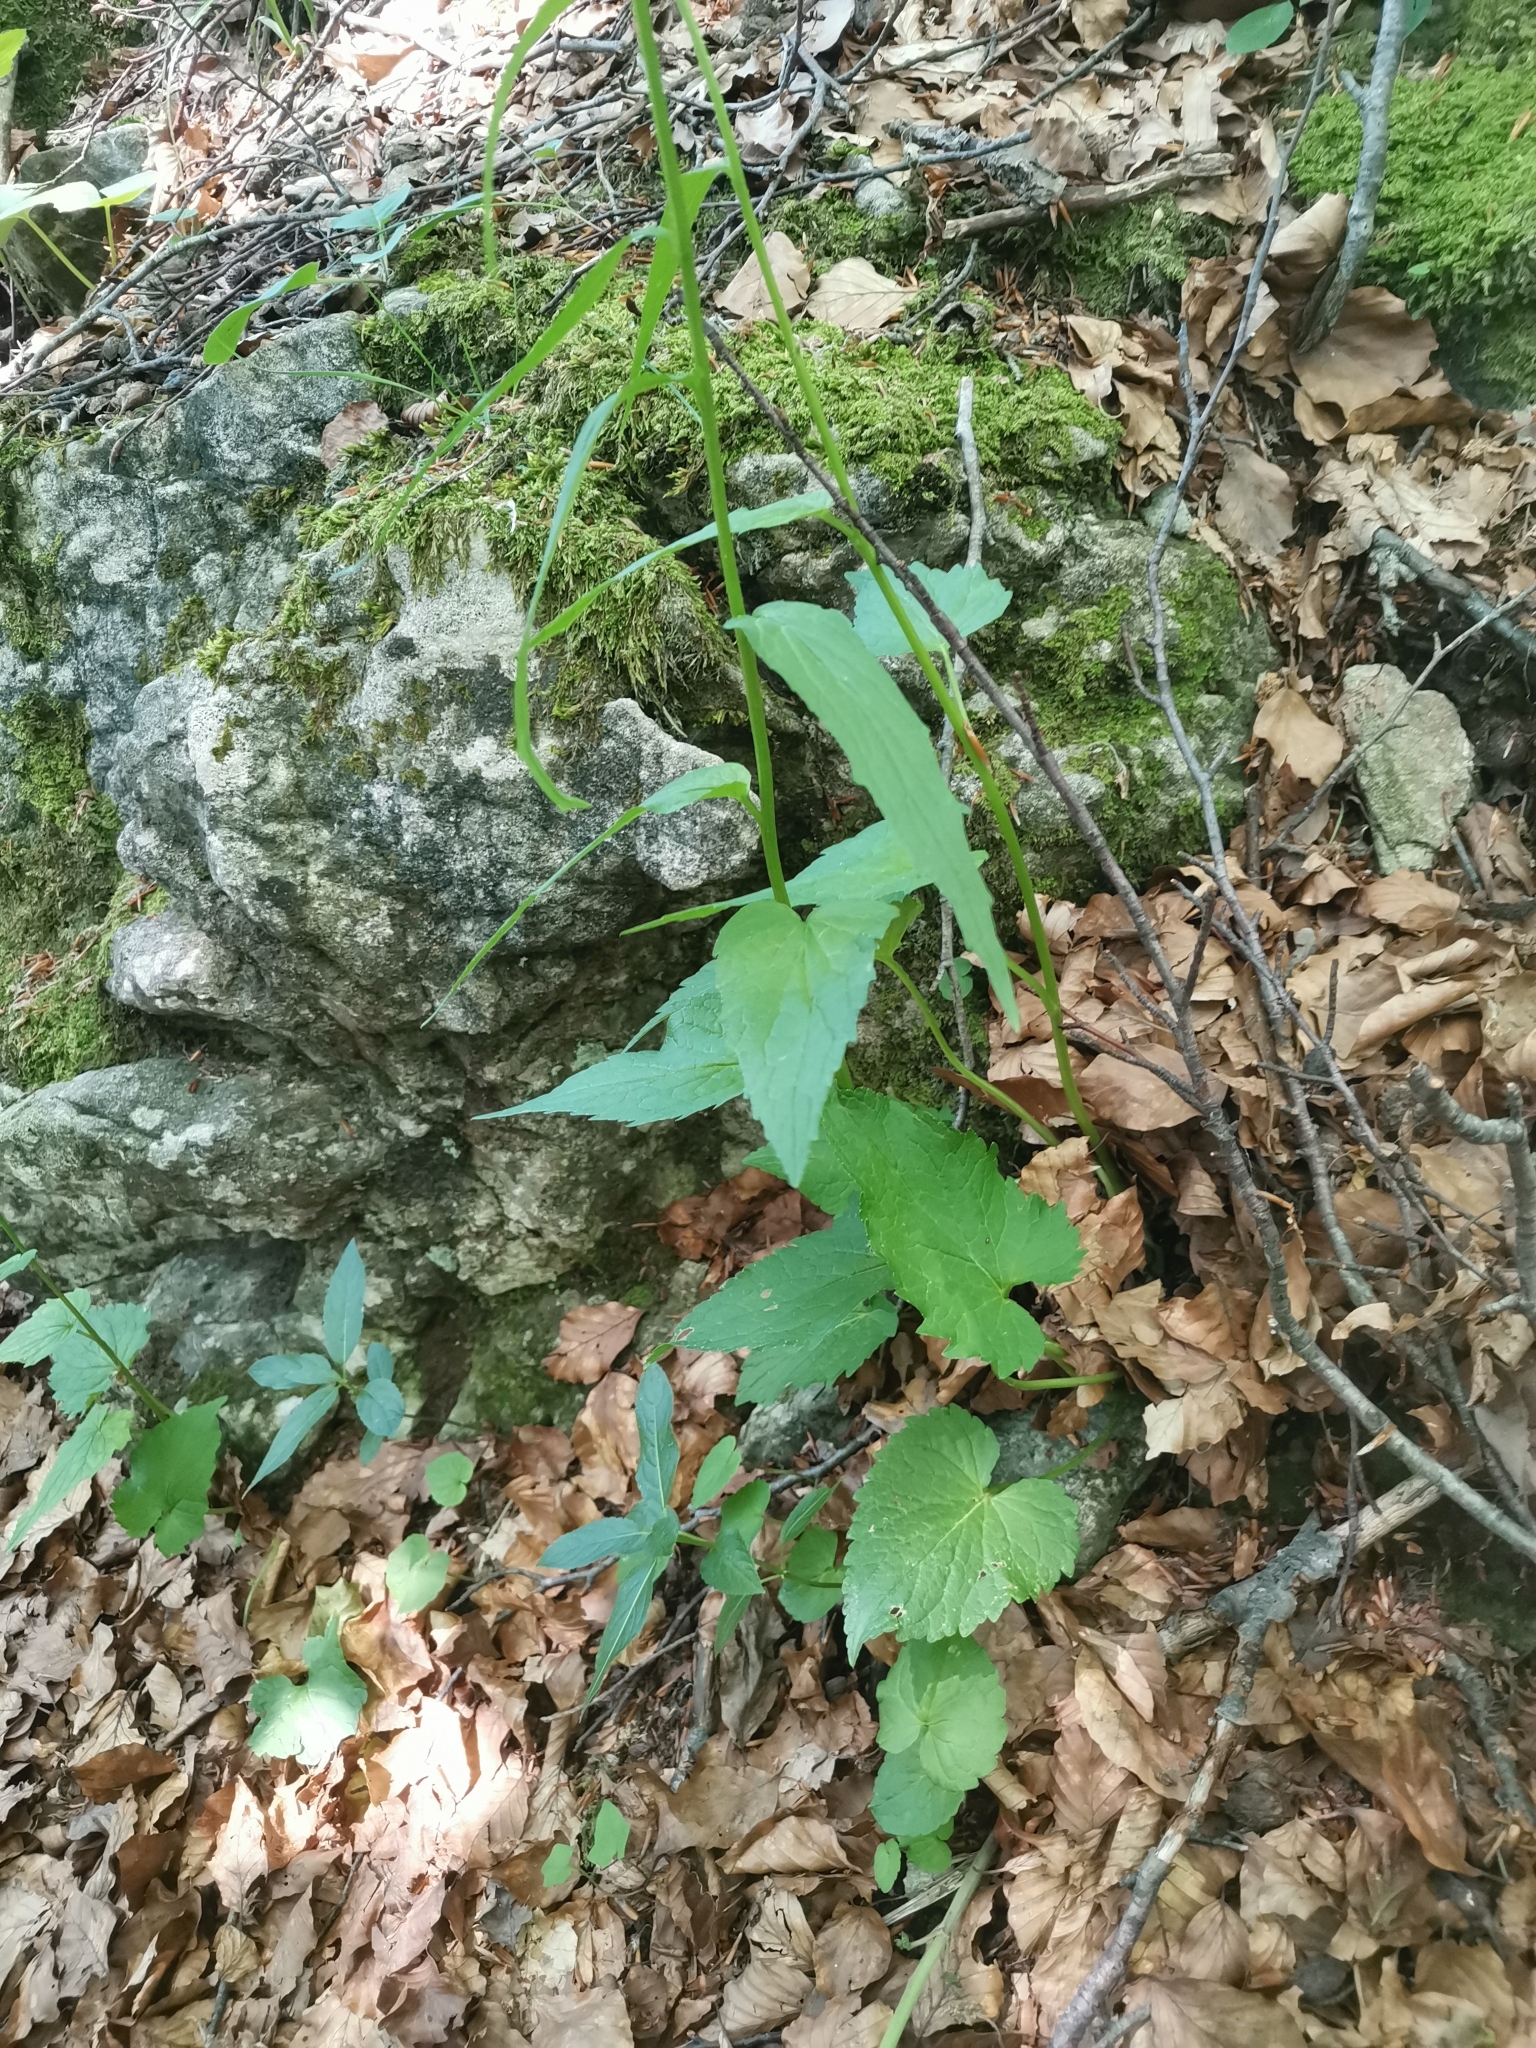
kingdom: Plantae
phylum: Tracheophyta
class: Magnoliopsida
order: Asterales
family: Campanulaceae
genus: Phyteuma
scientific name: Phyteuma spicatum
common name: Spiked rampion
